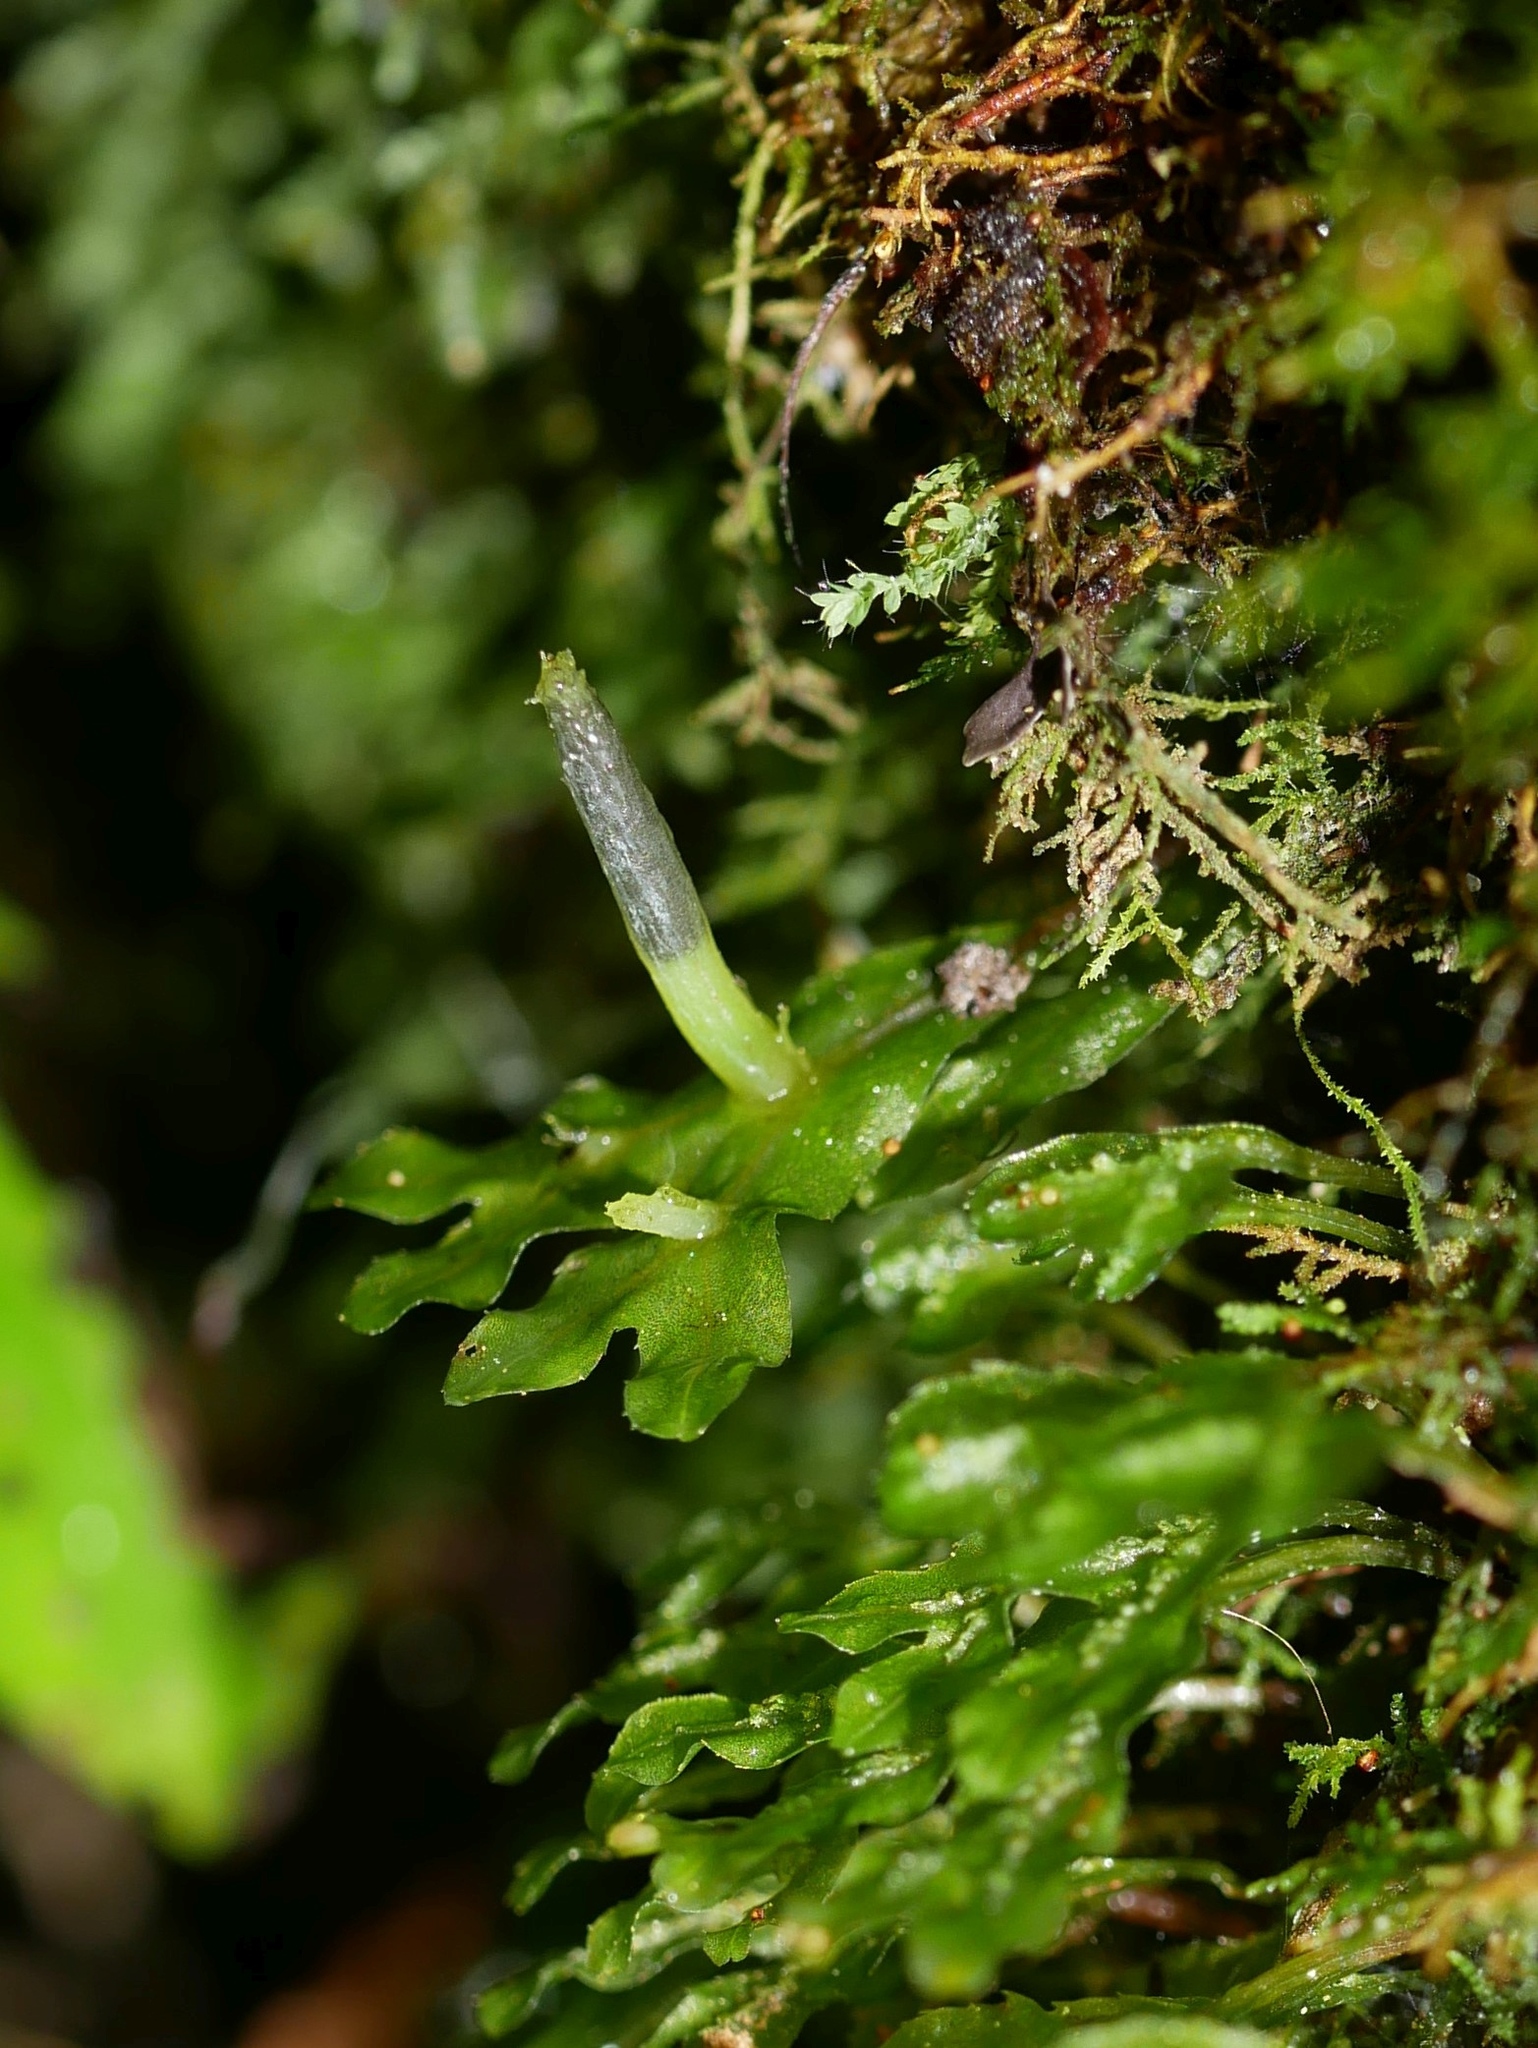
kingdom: Plantae
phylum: Marchantiophyta
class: Jungermanniopsida
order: Pallaviciniales
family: Pallaviciniaceae
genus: Symphyogyna
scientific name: Symphyogyna hymenophyllum
